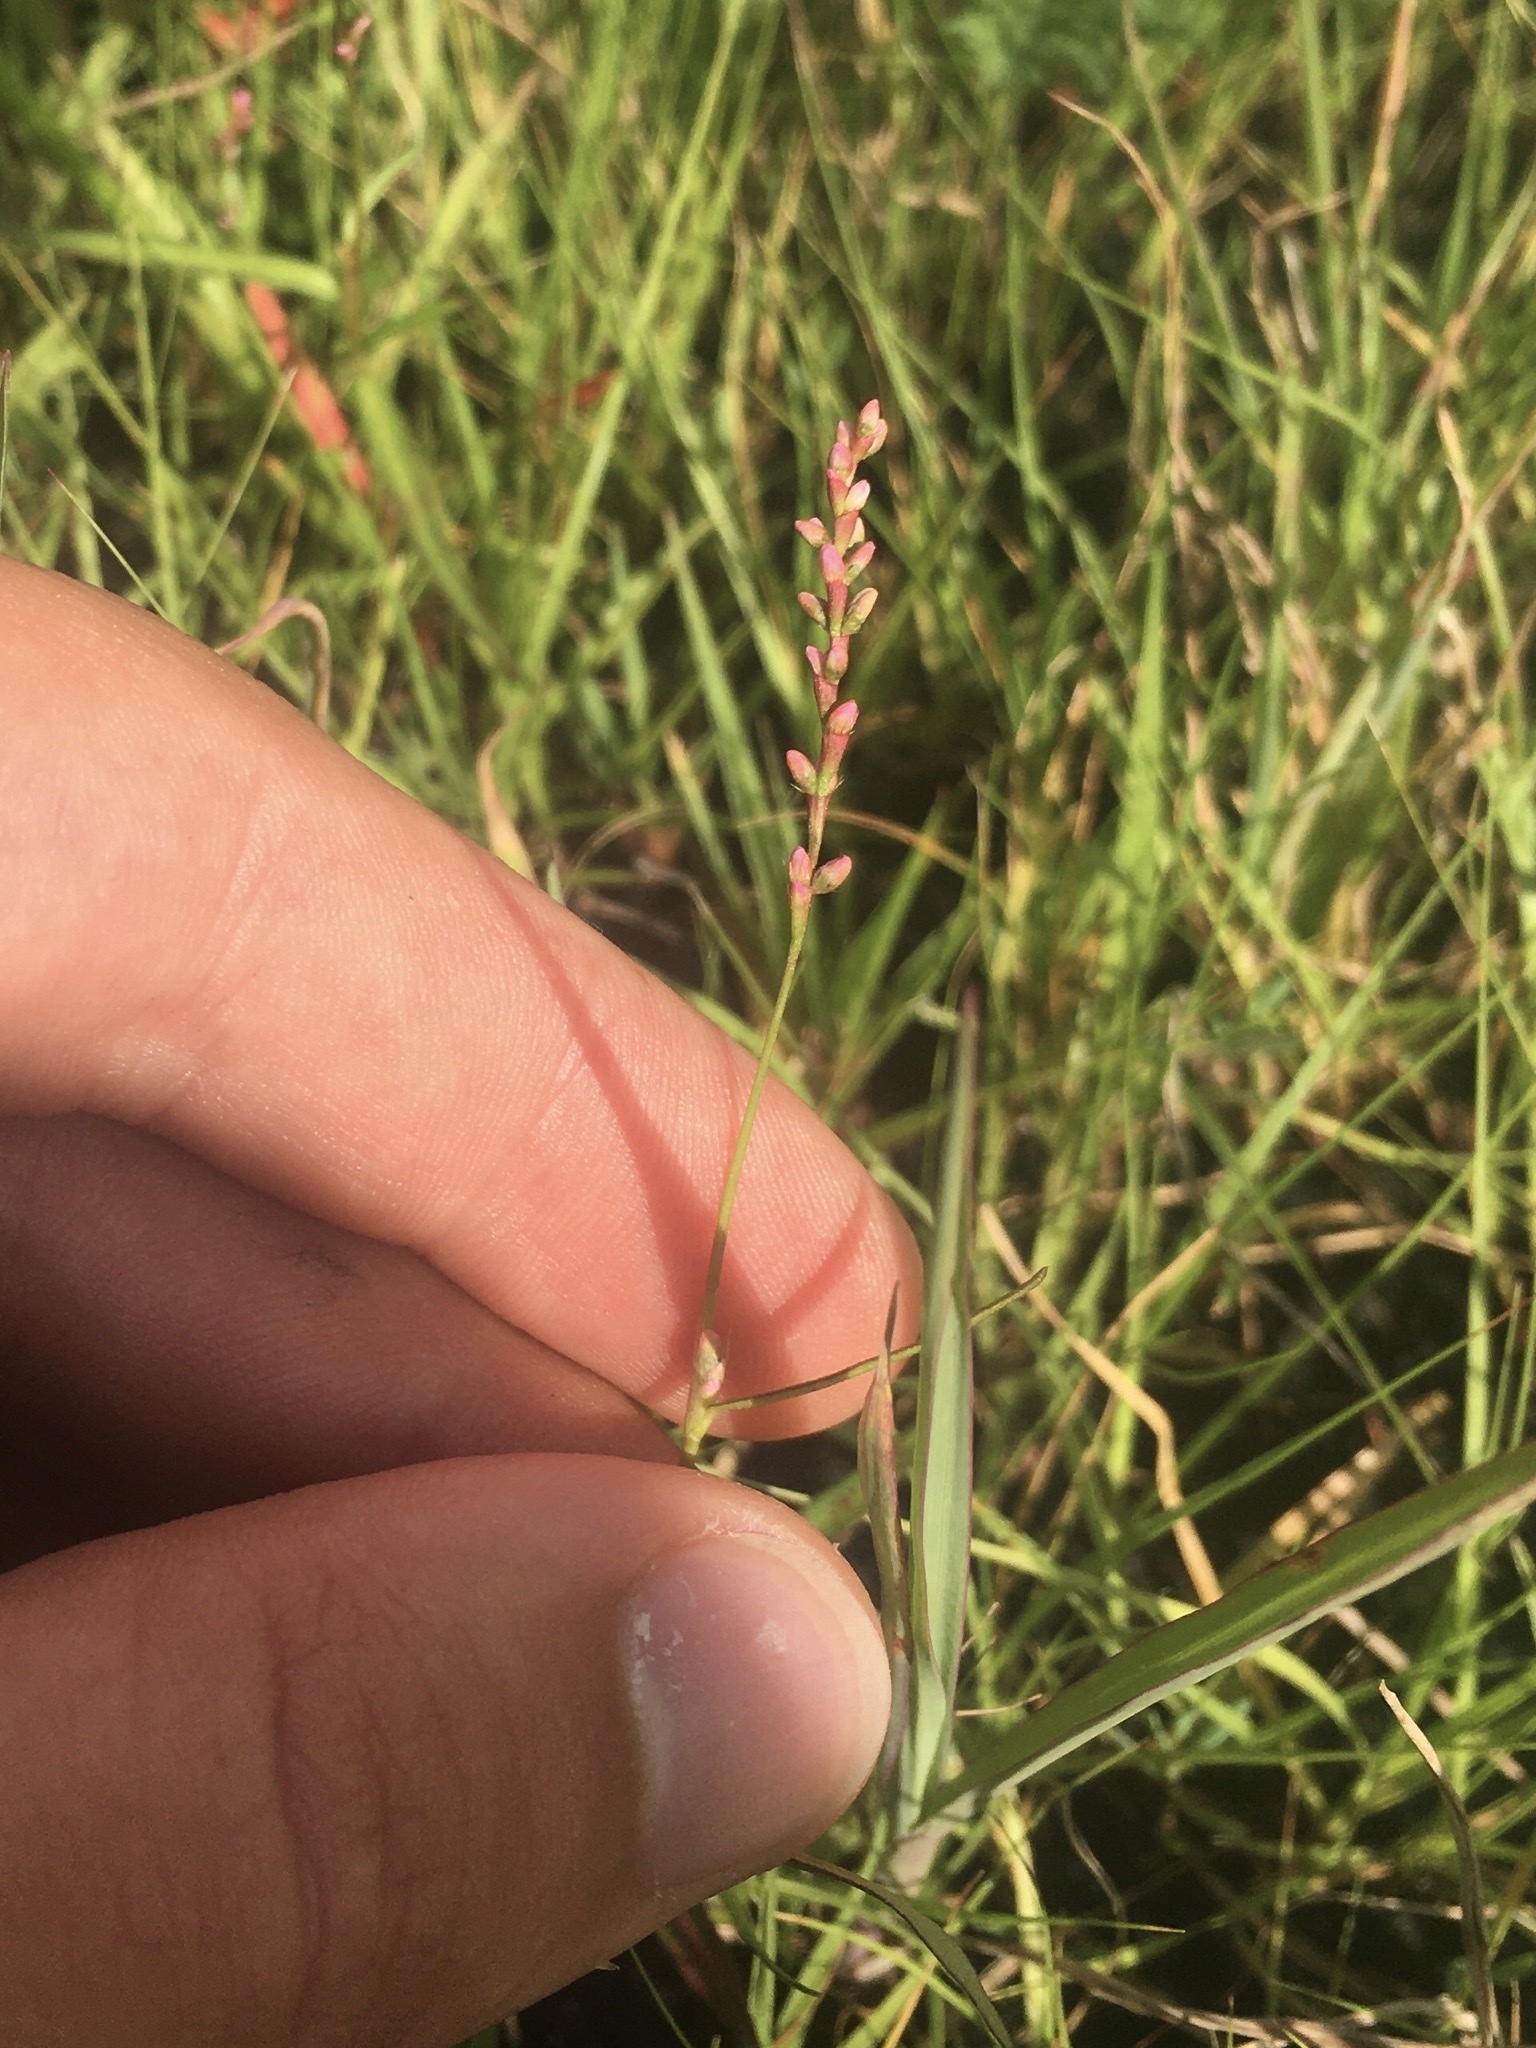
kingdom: Plantae
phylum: Tracheophyta
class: Magnoliopsida
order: Caryophyllales
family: Polygonaceae
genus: Persicaria
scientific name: Persicaria minor
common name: Small water-pepper
